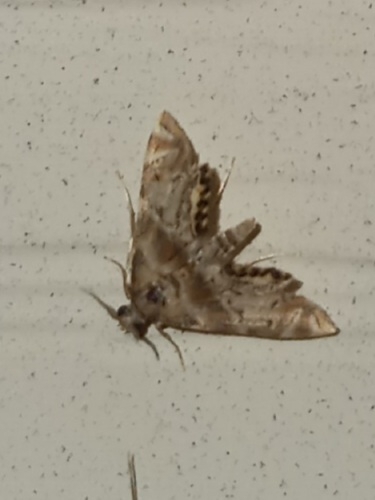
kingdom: Animalia
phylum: Arthropoda
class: Insecta
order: Lepidoptera
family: Crambidae
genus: Petrophila
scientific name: Petrophila fulicalis
